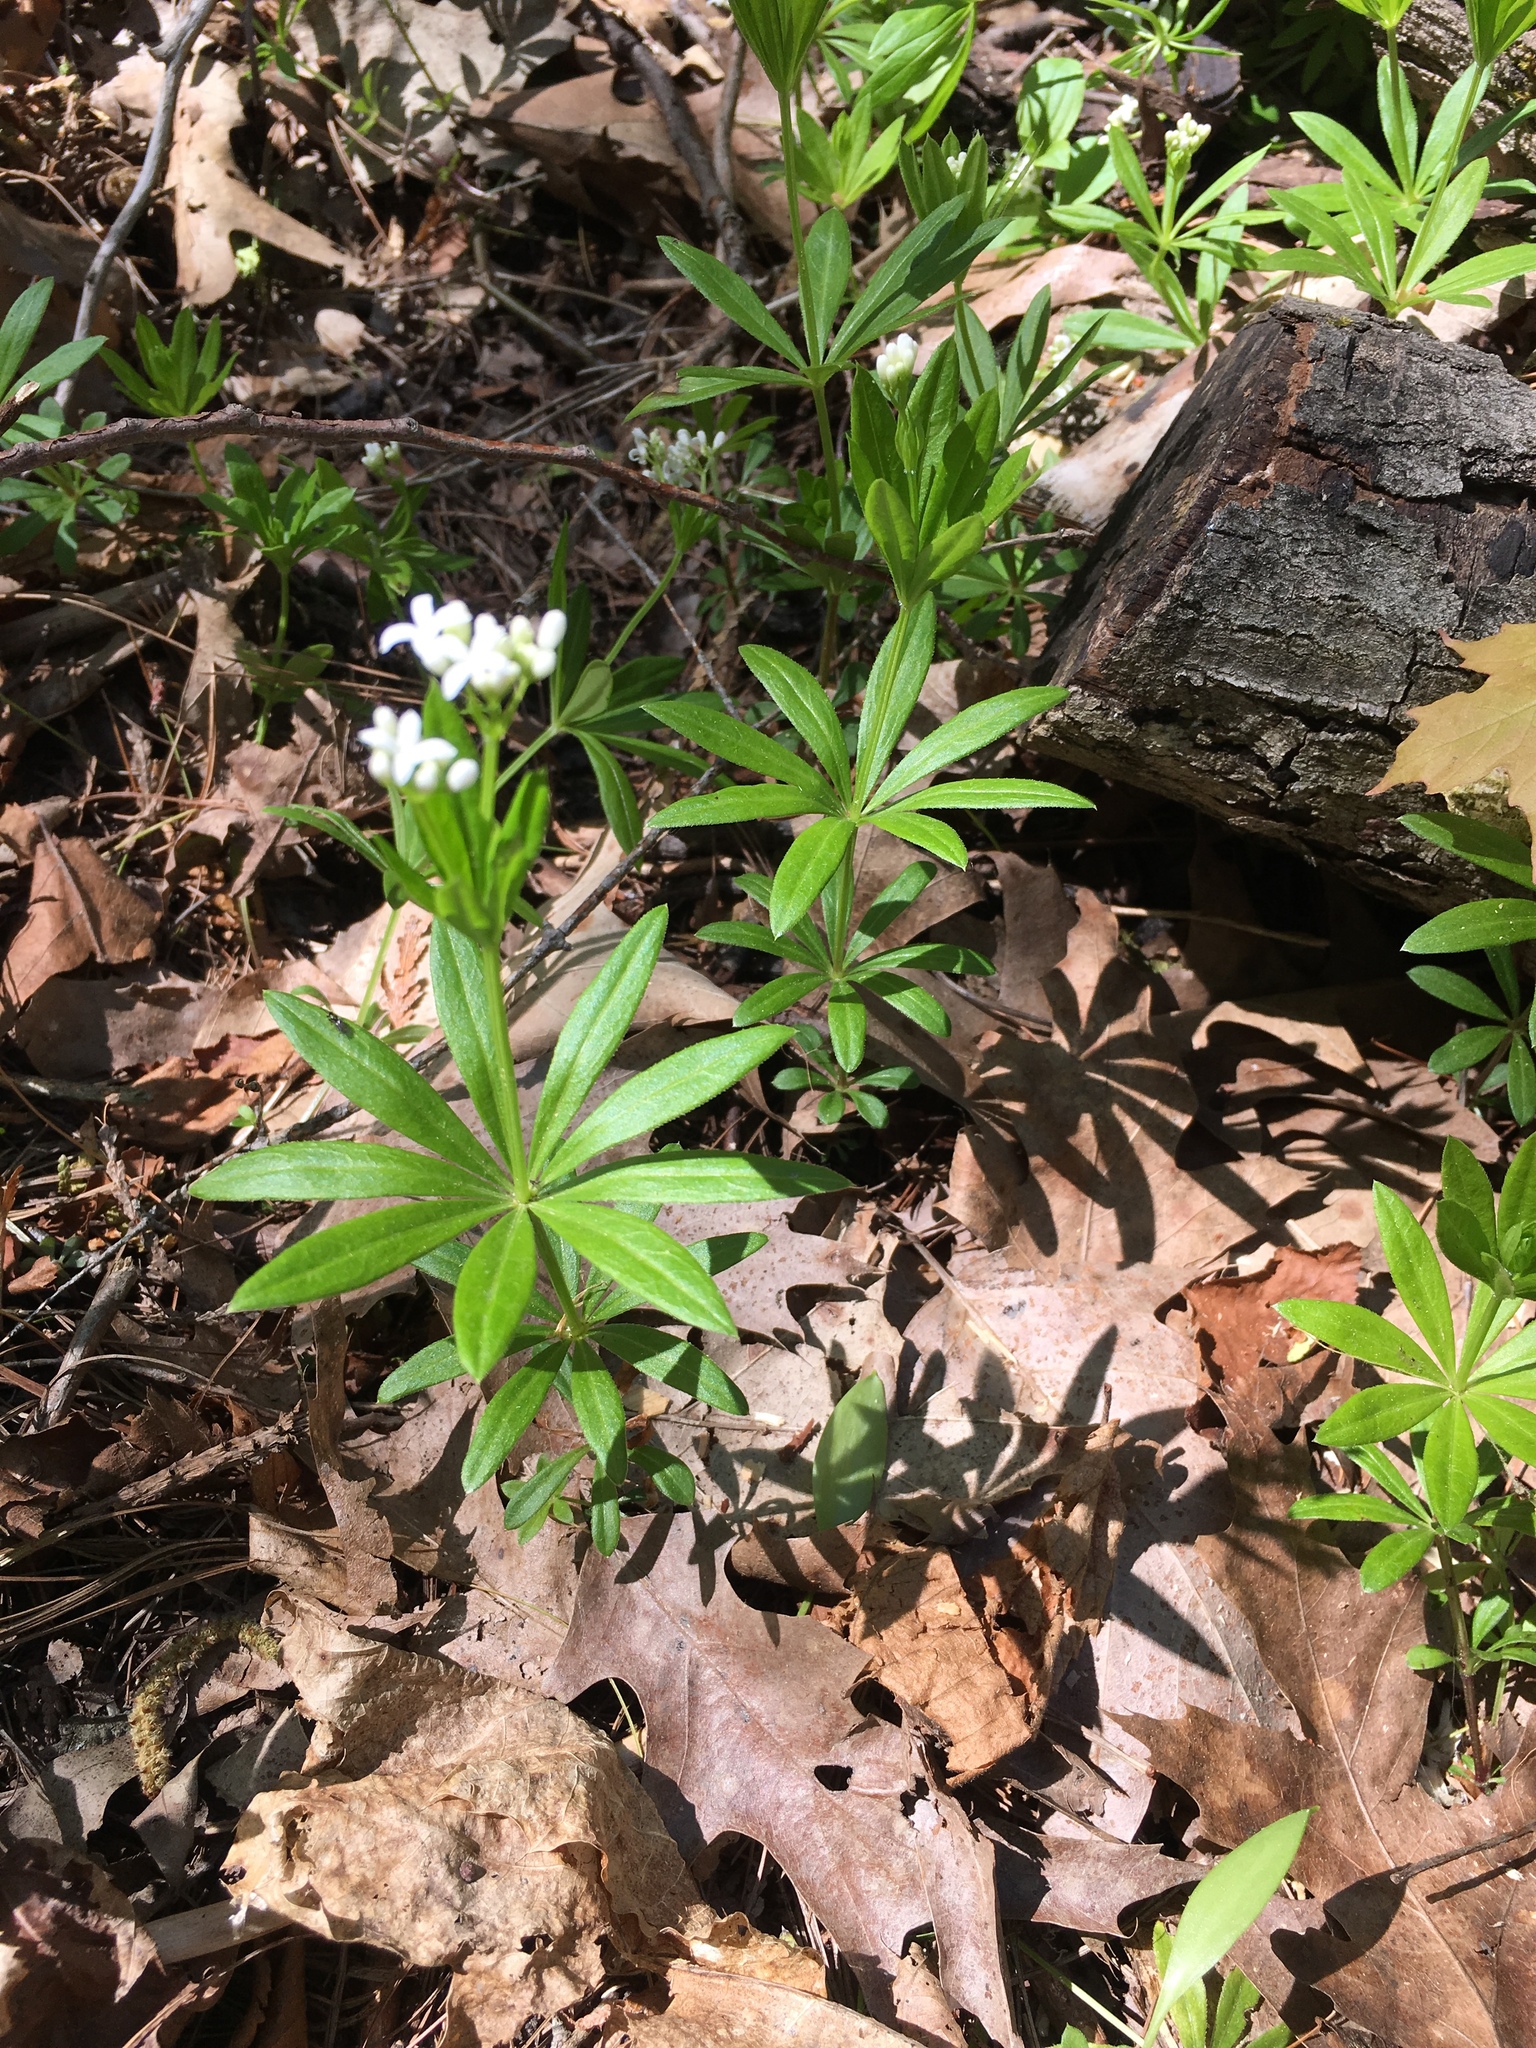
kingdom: Plantae
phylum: Tracheophyta
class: Magnoliopsida
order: Gentianales
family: Rubiaceae
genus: Galium
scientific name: Galium odoratum
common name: Sweet woodruff
